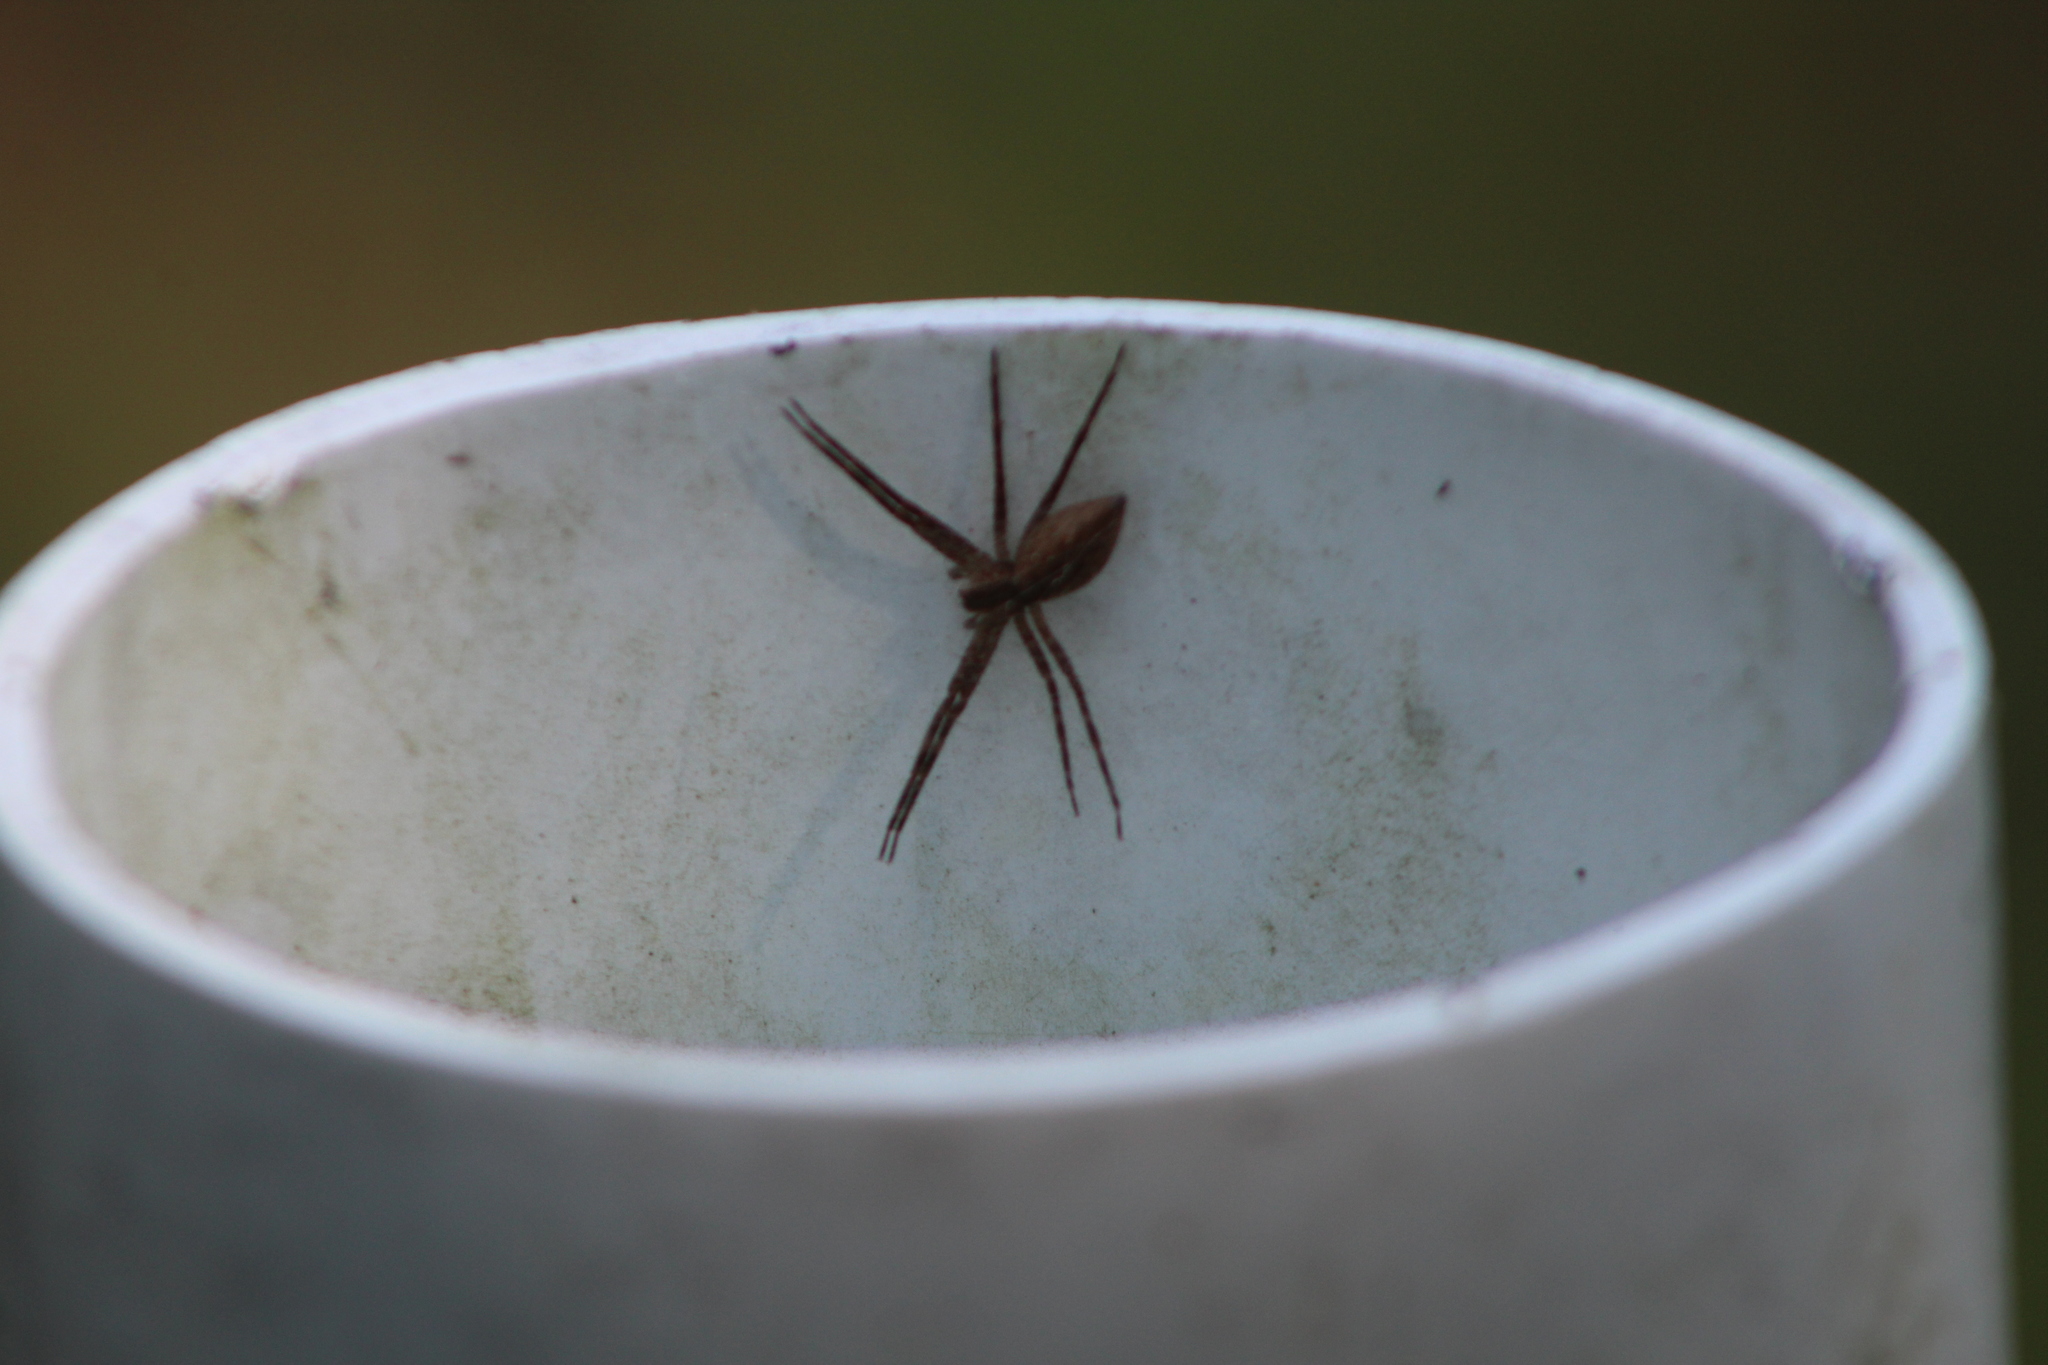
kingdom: Animalia
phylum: Arthropoda
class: Arachnida
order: Araneae
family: Pisauridae
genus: Pisaurina
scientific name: Pisaurina mira
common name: American nursery web spider
